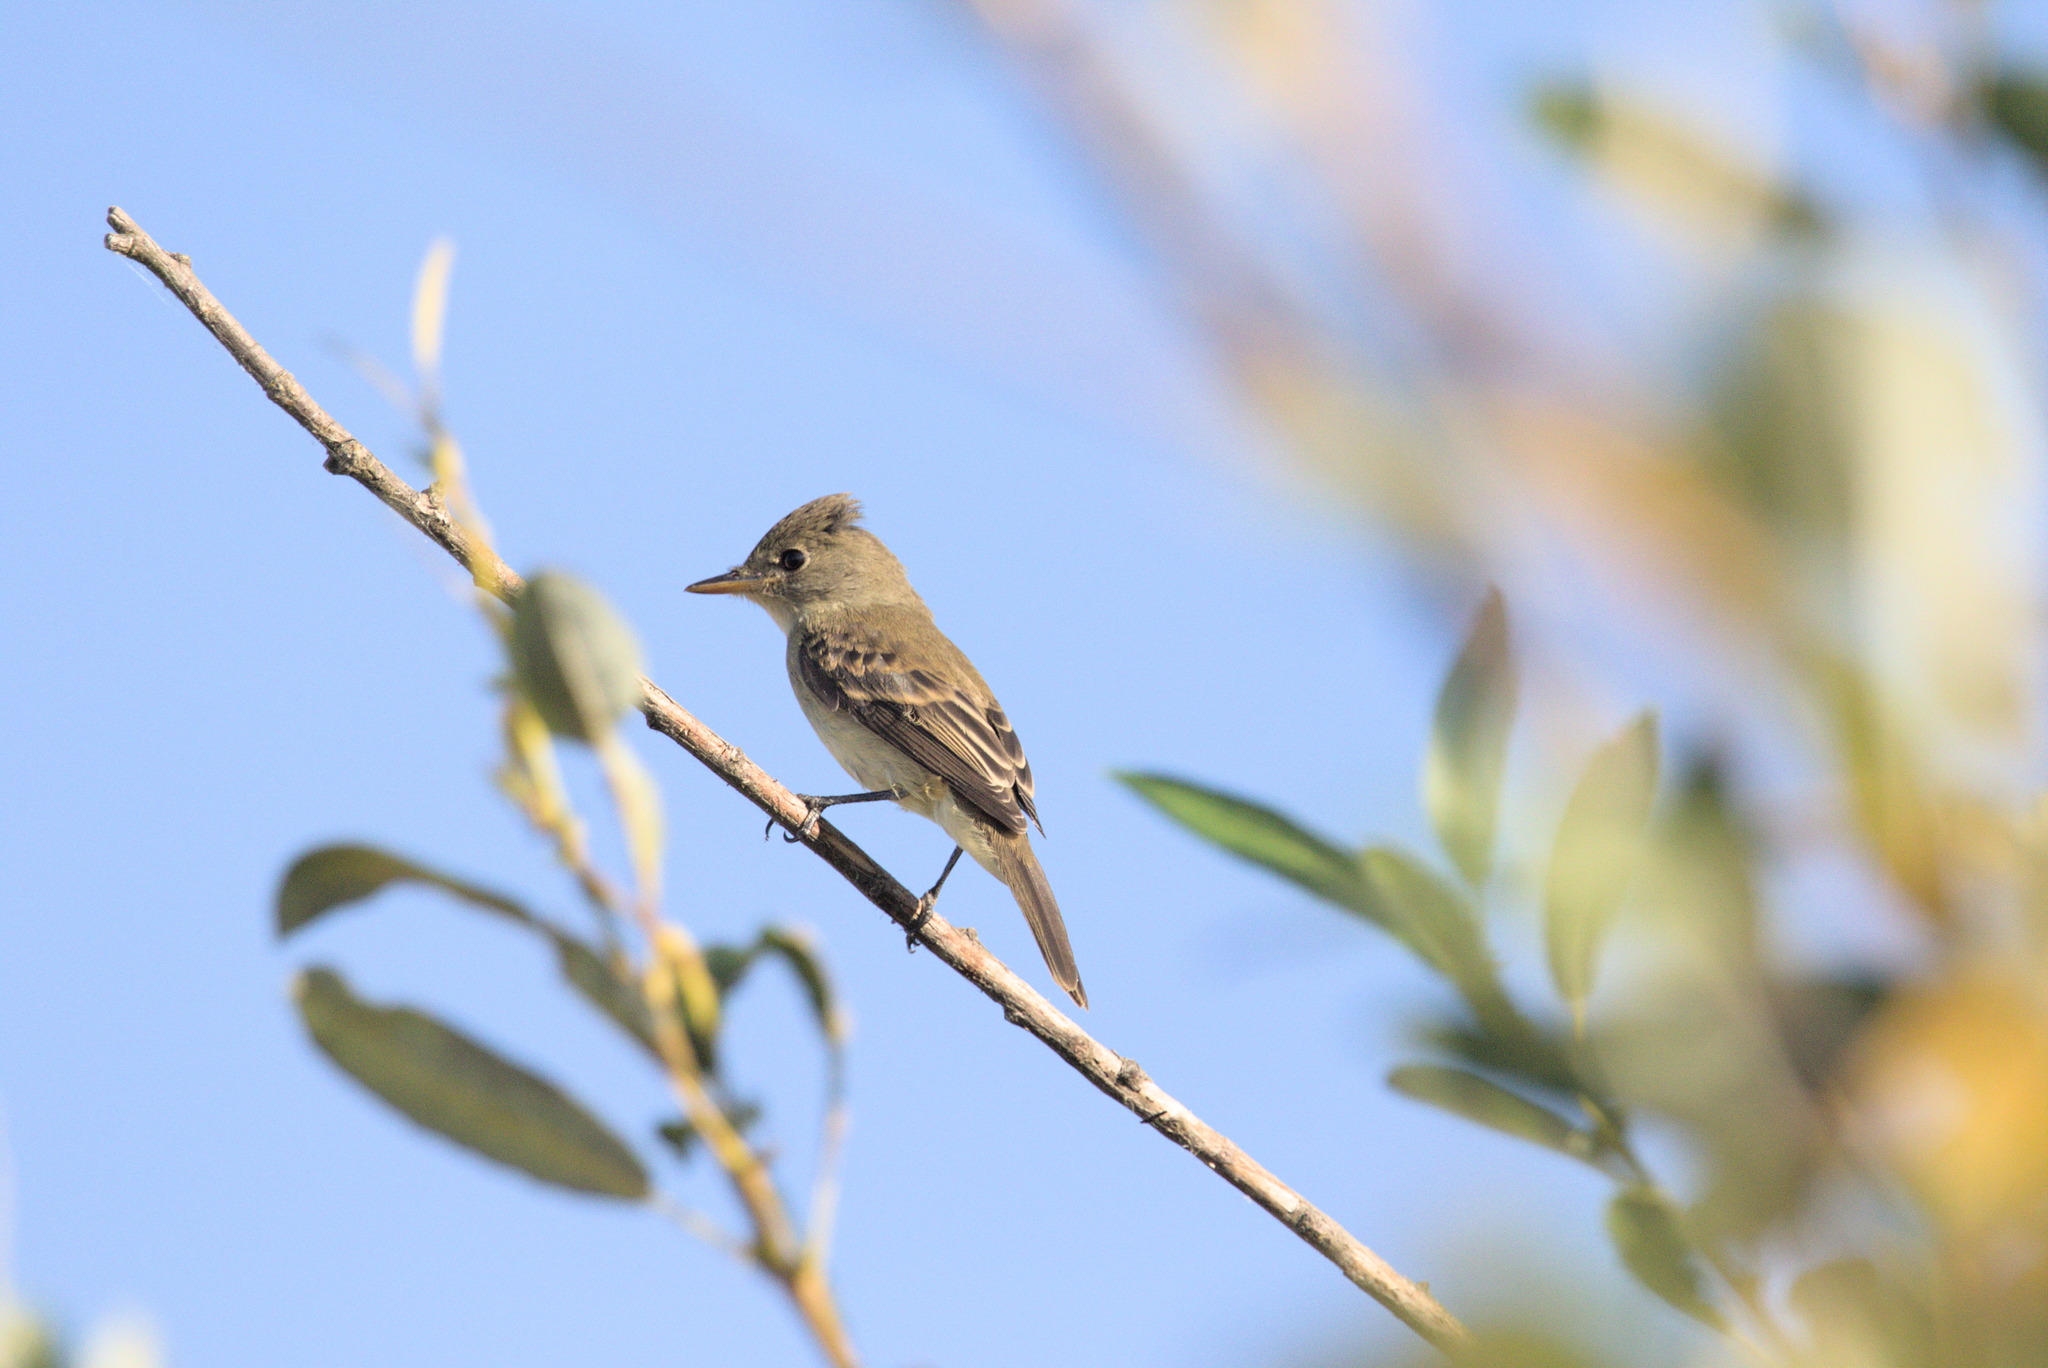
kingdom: Animalia
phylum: Chordata
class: Aves
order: Passeriformes
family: Tyrannidae
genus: Empidonax
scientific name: Empidonax traillii
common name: Willow flycatcher
